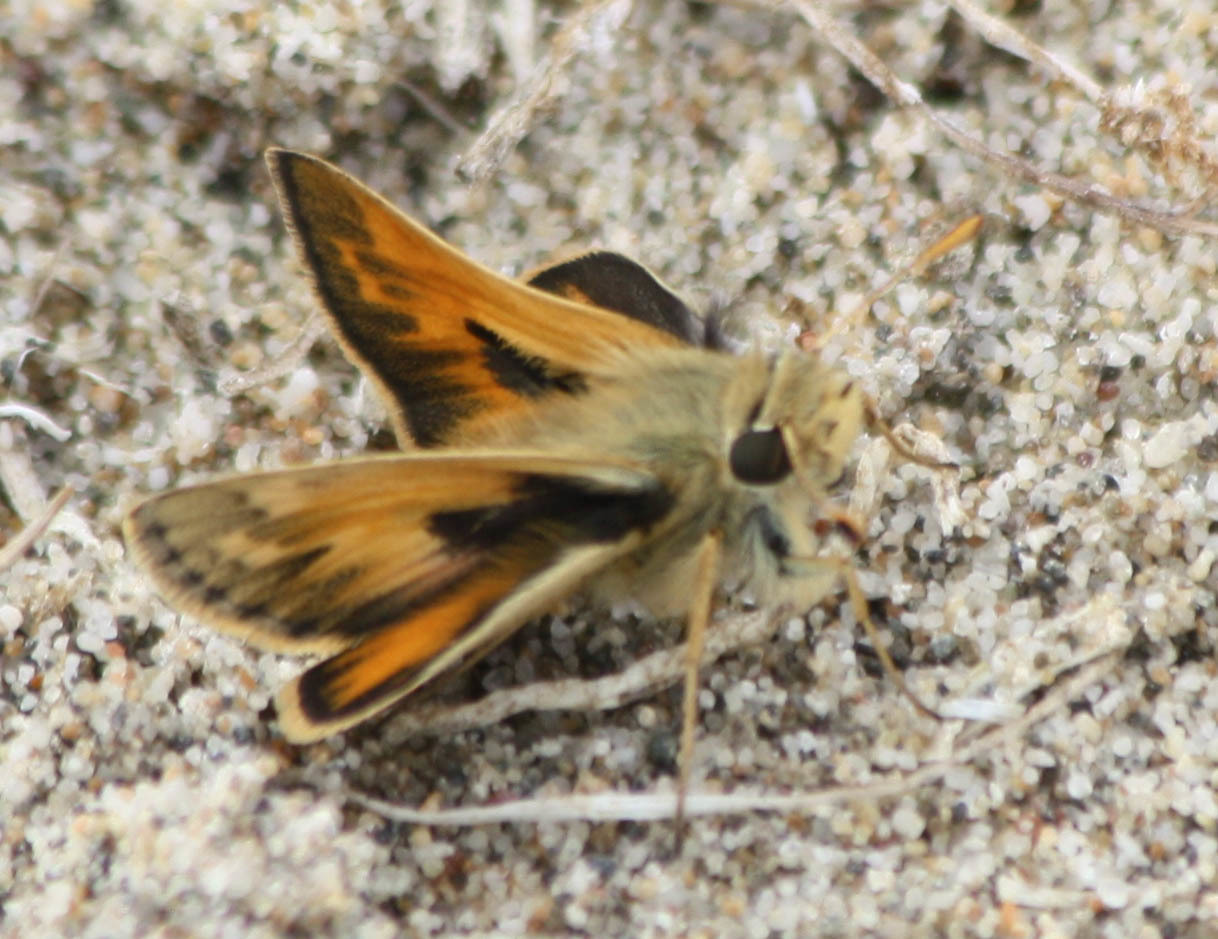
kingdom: Animalia
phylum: Arthropoda
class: Insecta
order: Lepidoptera
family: Hesperiidae
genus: Polites
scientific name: Polites sabuleti
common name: Sandhill skipper
